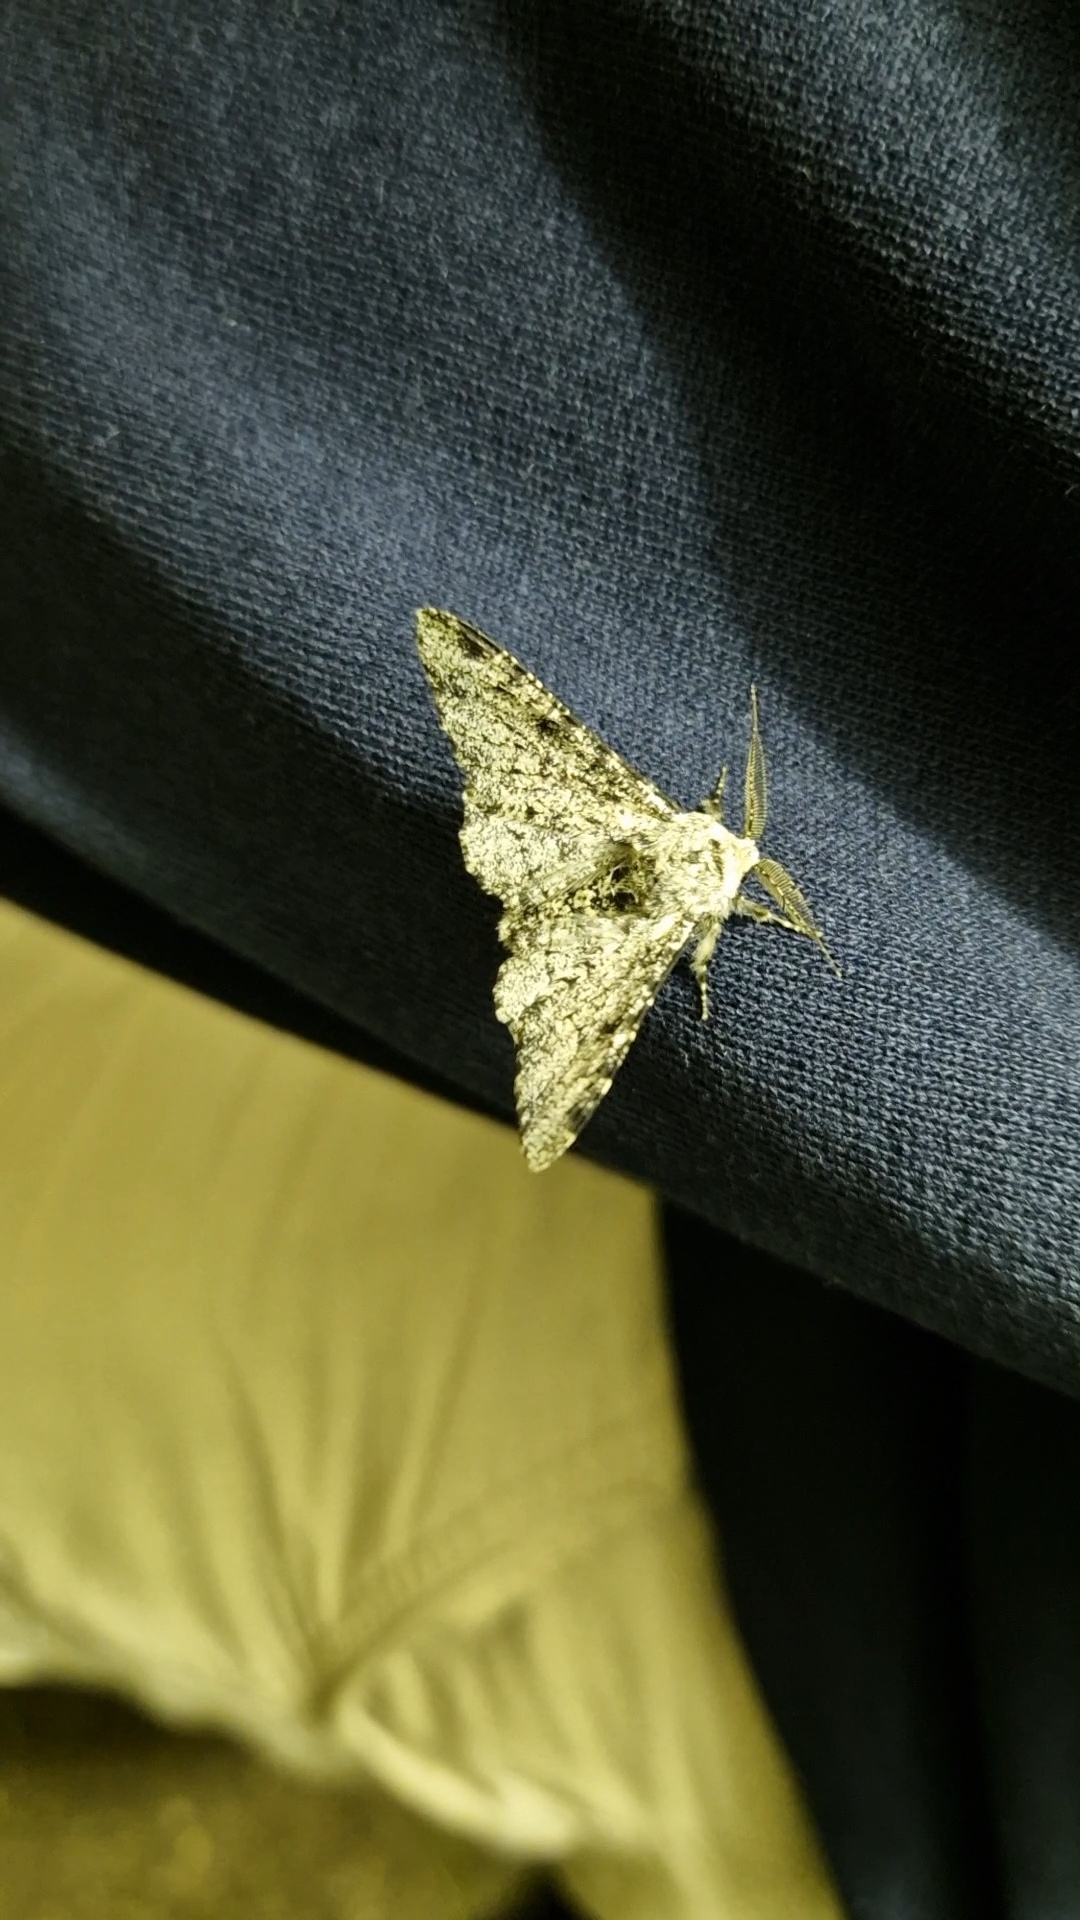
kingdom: Animalia
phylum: Arthropoda
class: Insecta
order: Lepidoptera
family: Geometridae
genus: Biston
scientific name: Biston betularia
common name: Peppered moth
